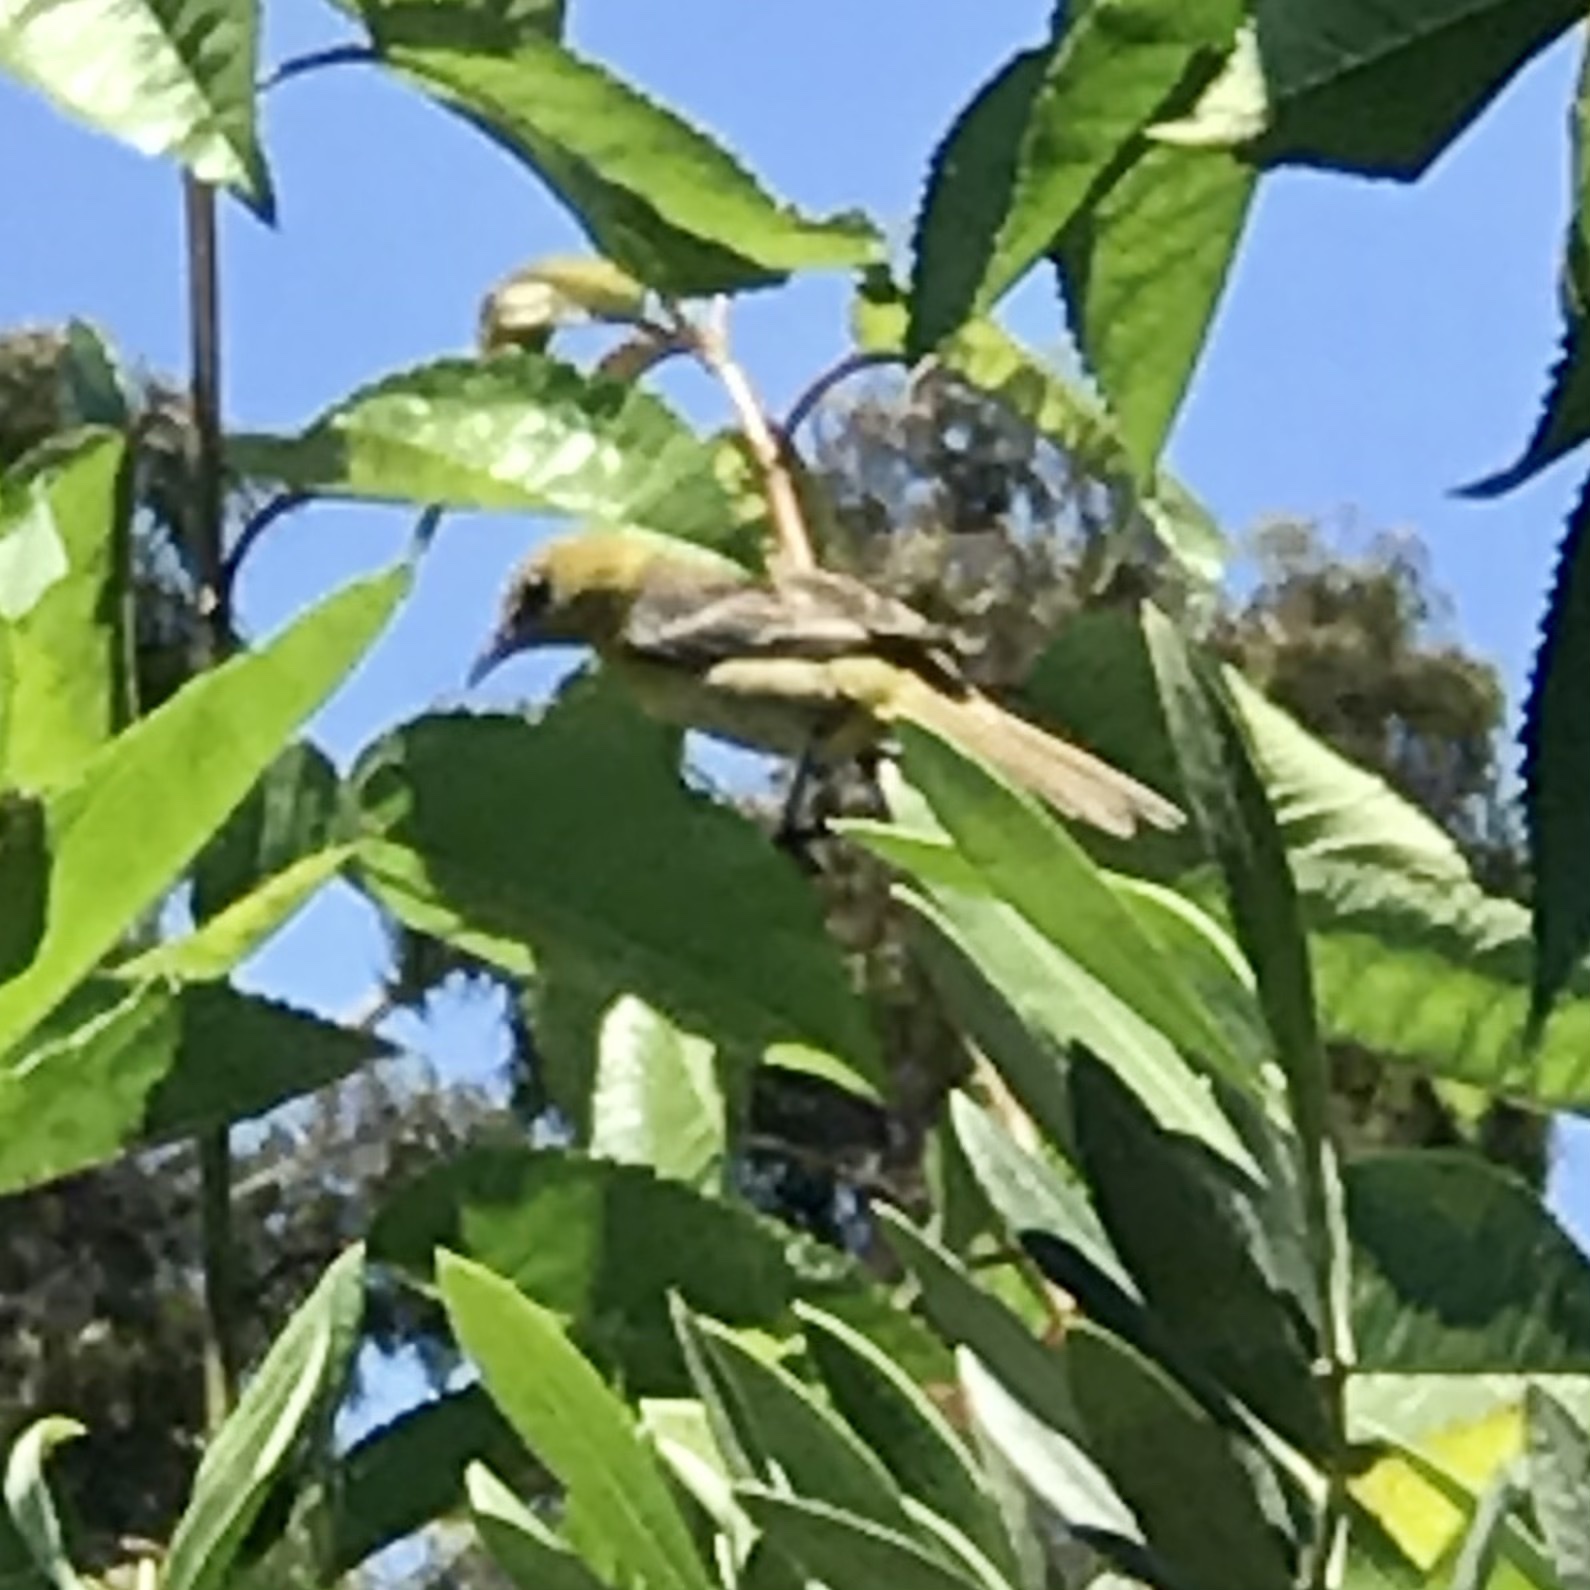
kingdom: Animalia
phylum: Chordata
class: Aves
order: Passeriformes
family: Icteridae
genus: Icterus
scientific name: Icterus cucullatus
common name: Hooded oriole
